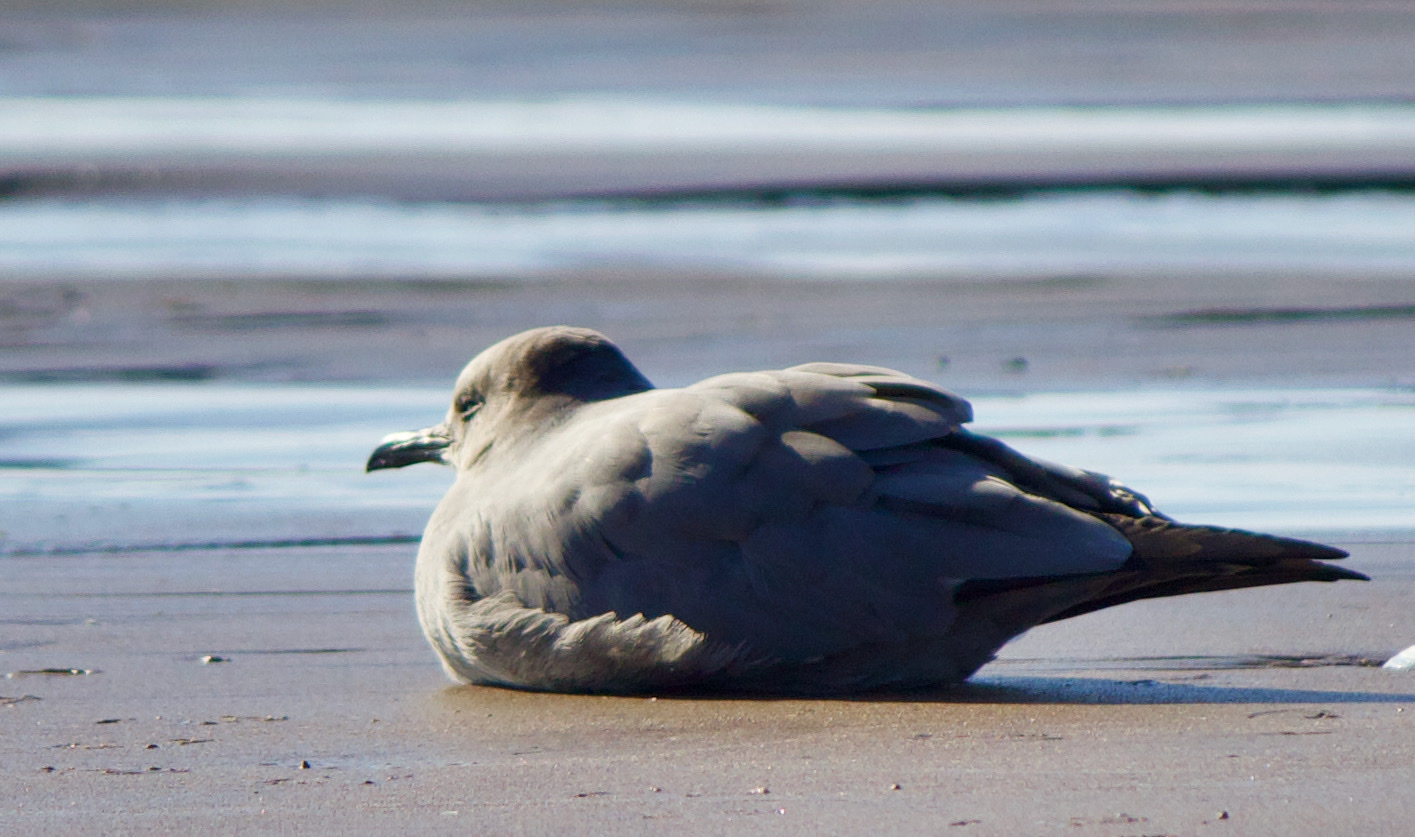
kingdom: Animalia
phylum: Chordata
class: Aves
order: Charadriiformes
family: Laridae
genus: Leucophaeus
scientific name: Leucophaeus modestus
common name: Gray gull
